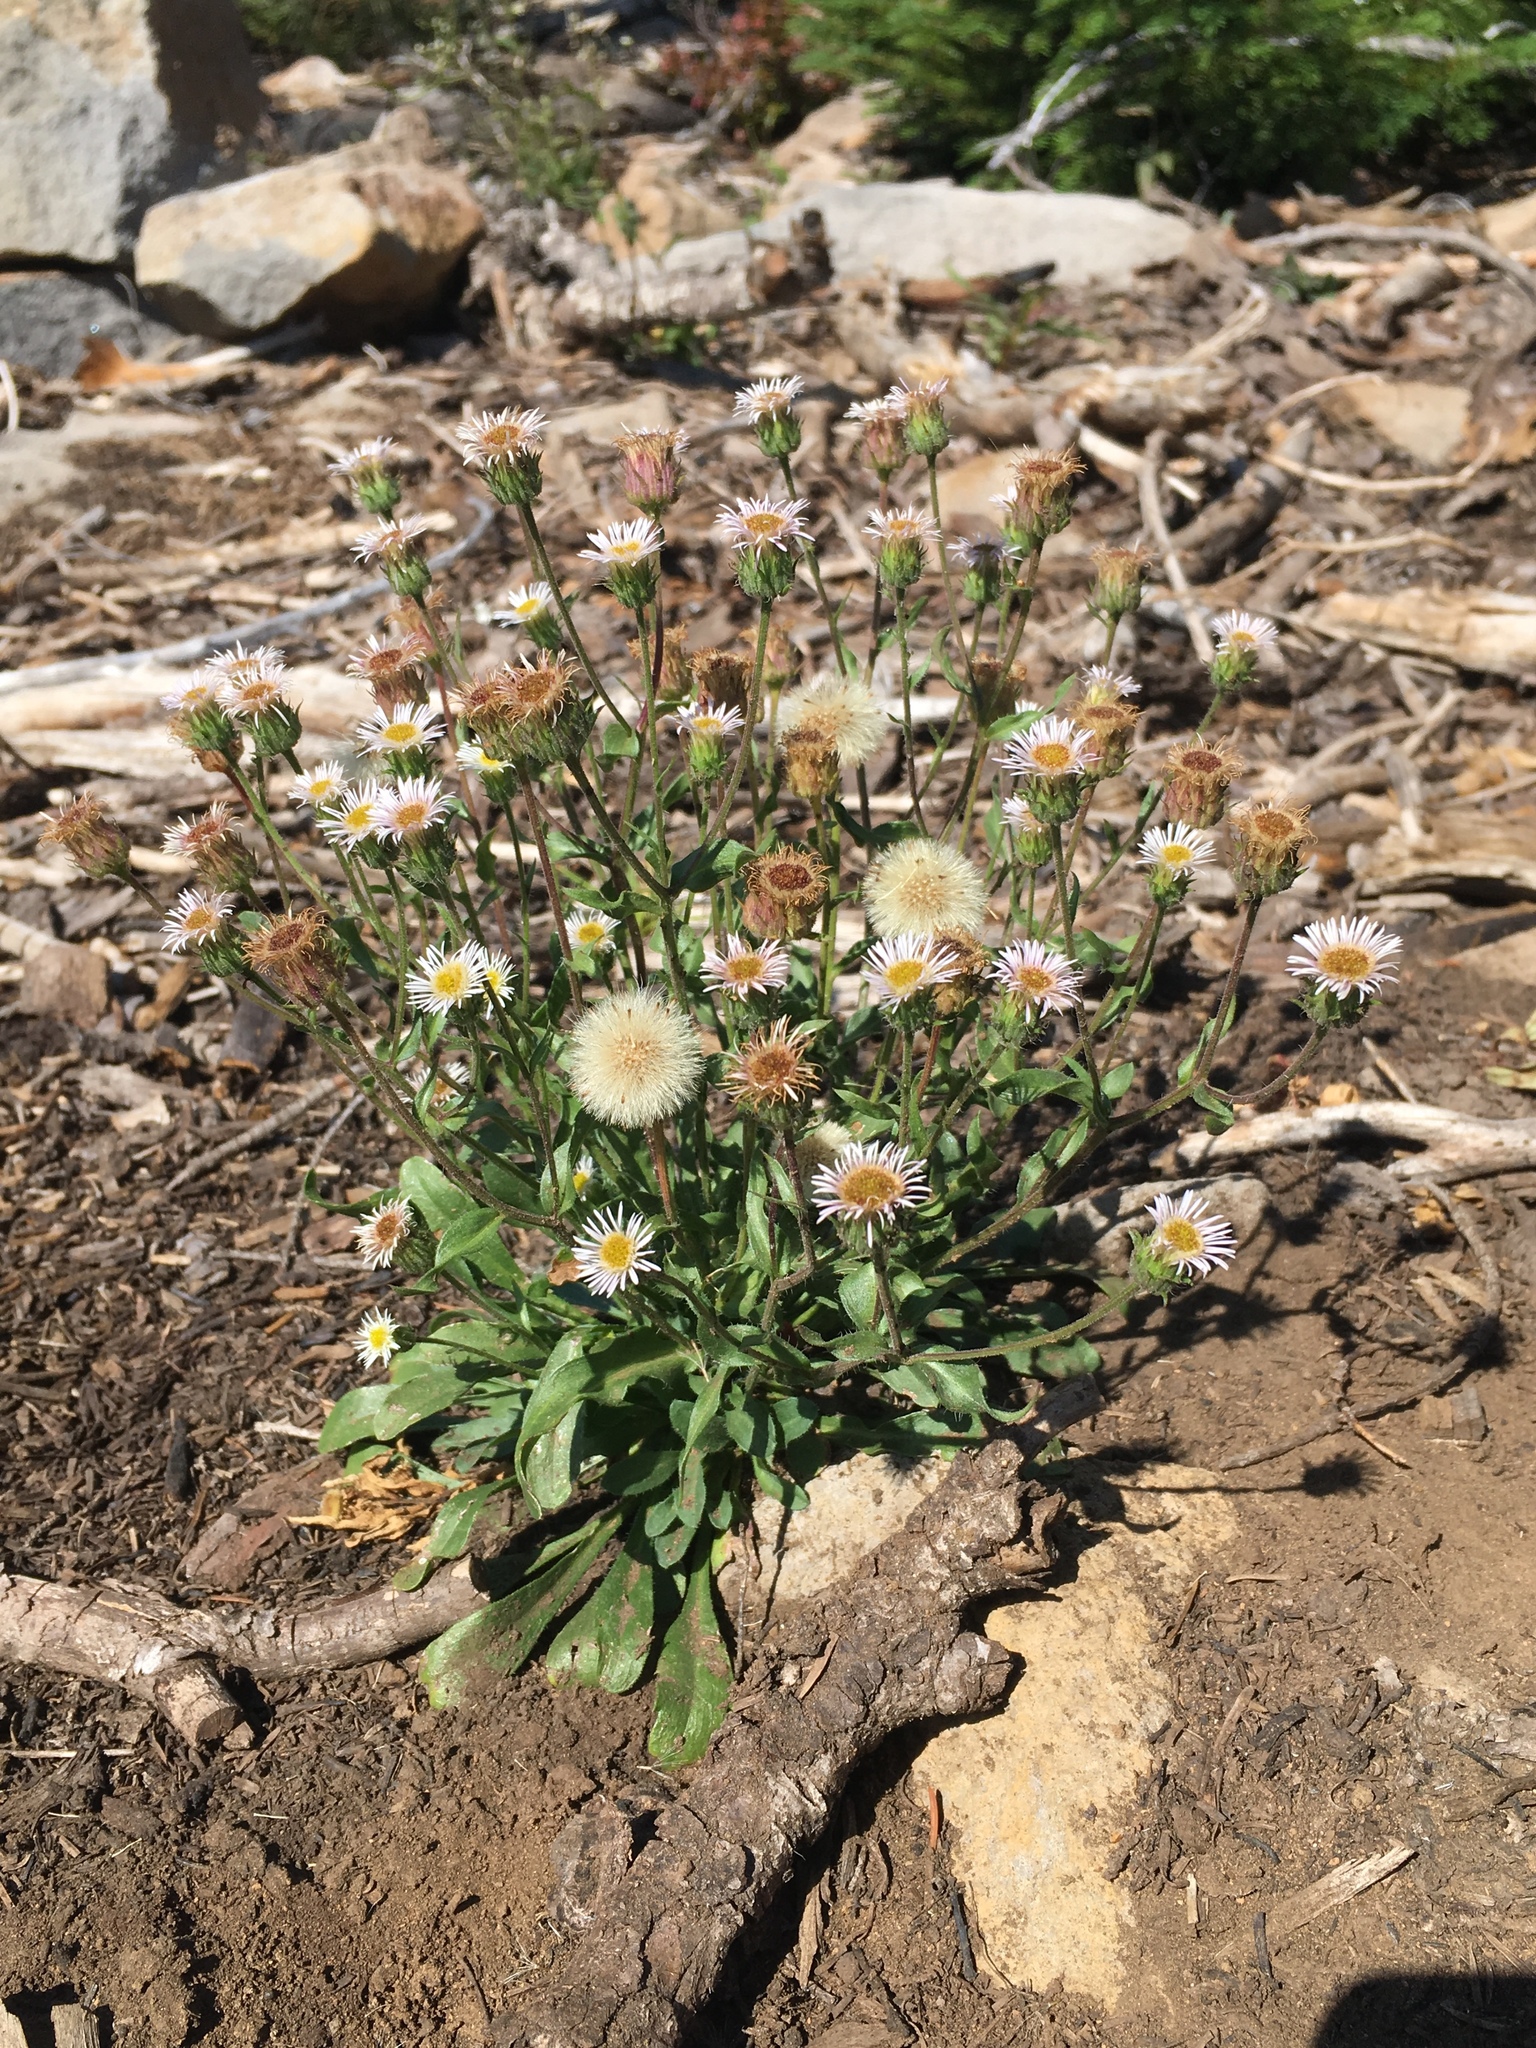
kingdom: Plantae
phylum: Tracheophyta
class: Magnoliopsida
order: Asterales
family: Asteraceae
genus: Erigeron
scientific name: Erigeron nivalis
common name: Snow fleabane
